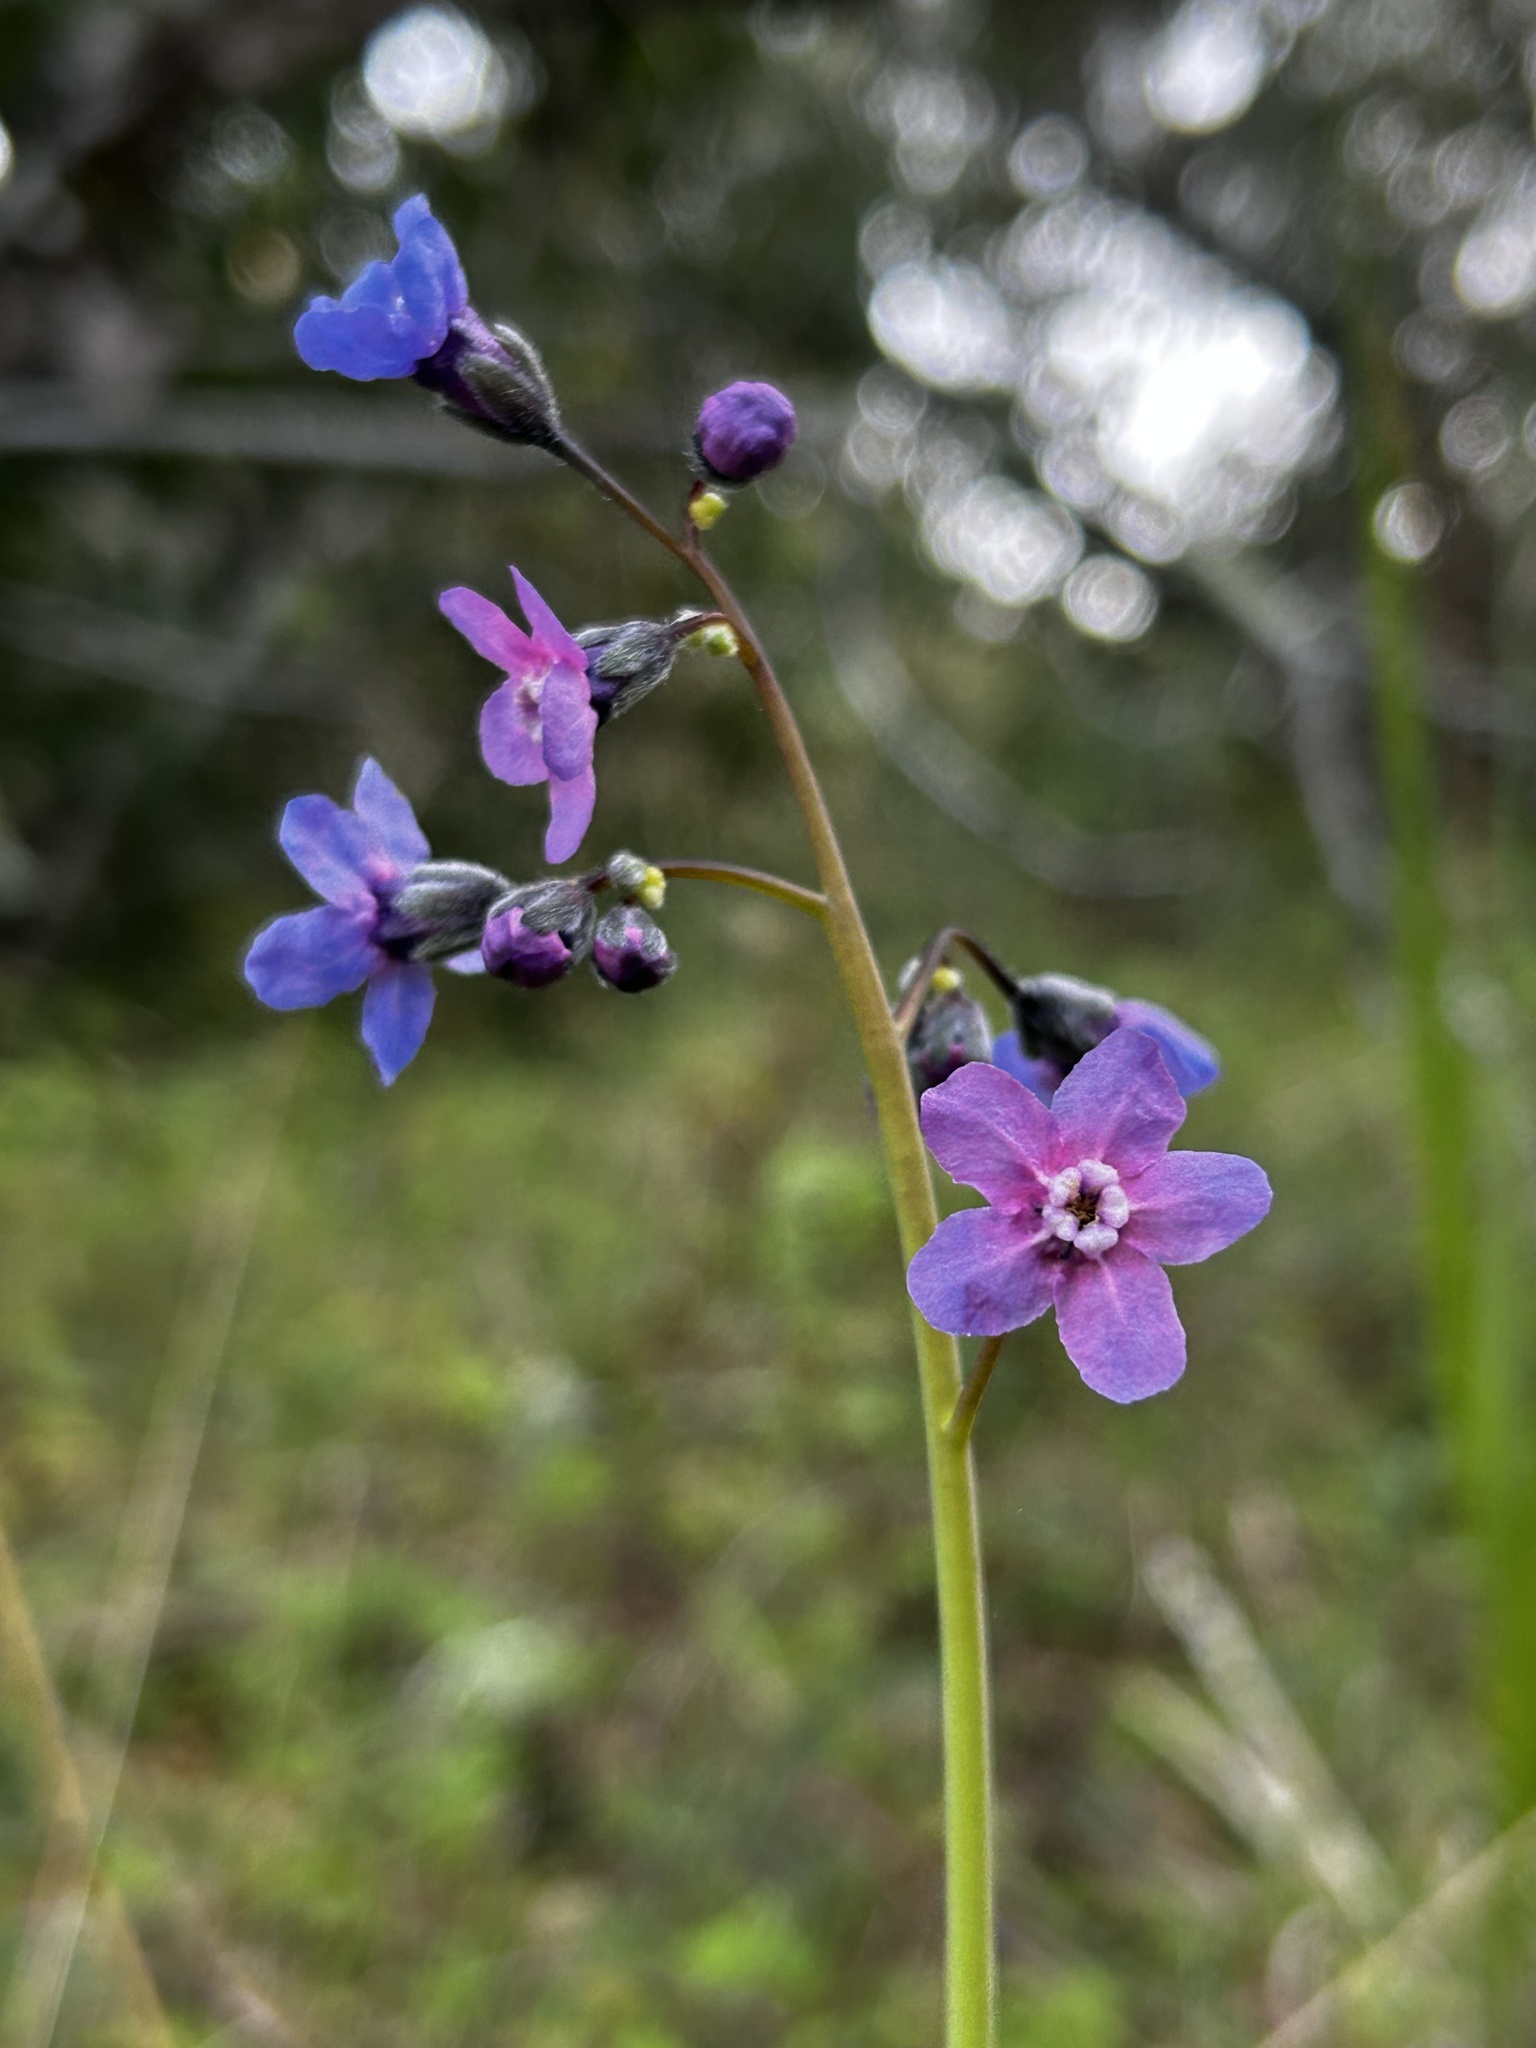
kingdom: Plantae
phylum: Tracheophyta
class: Magnoliopsida
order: Boraginales
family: Boraginaceae
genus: Adelinia
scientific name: Adelinia grande
